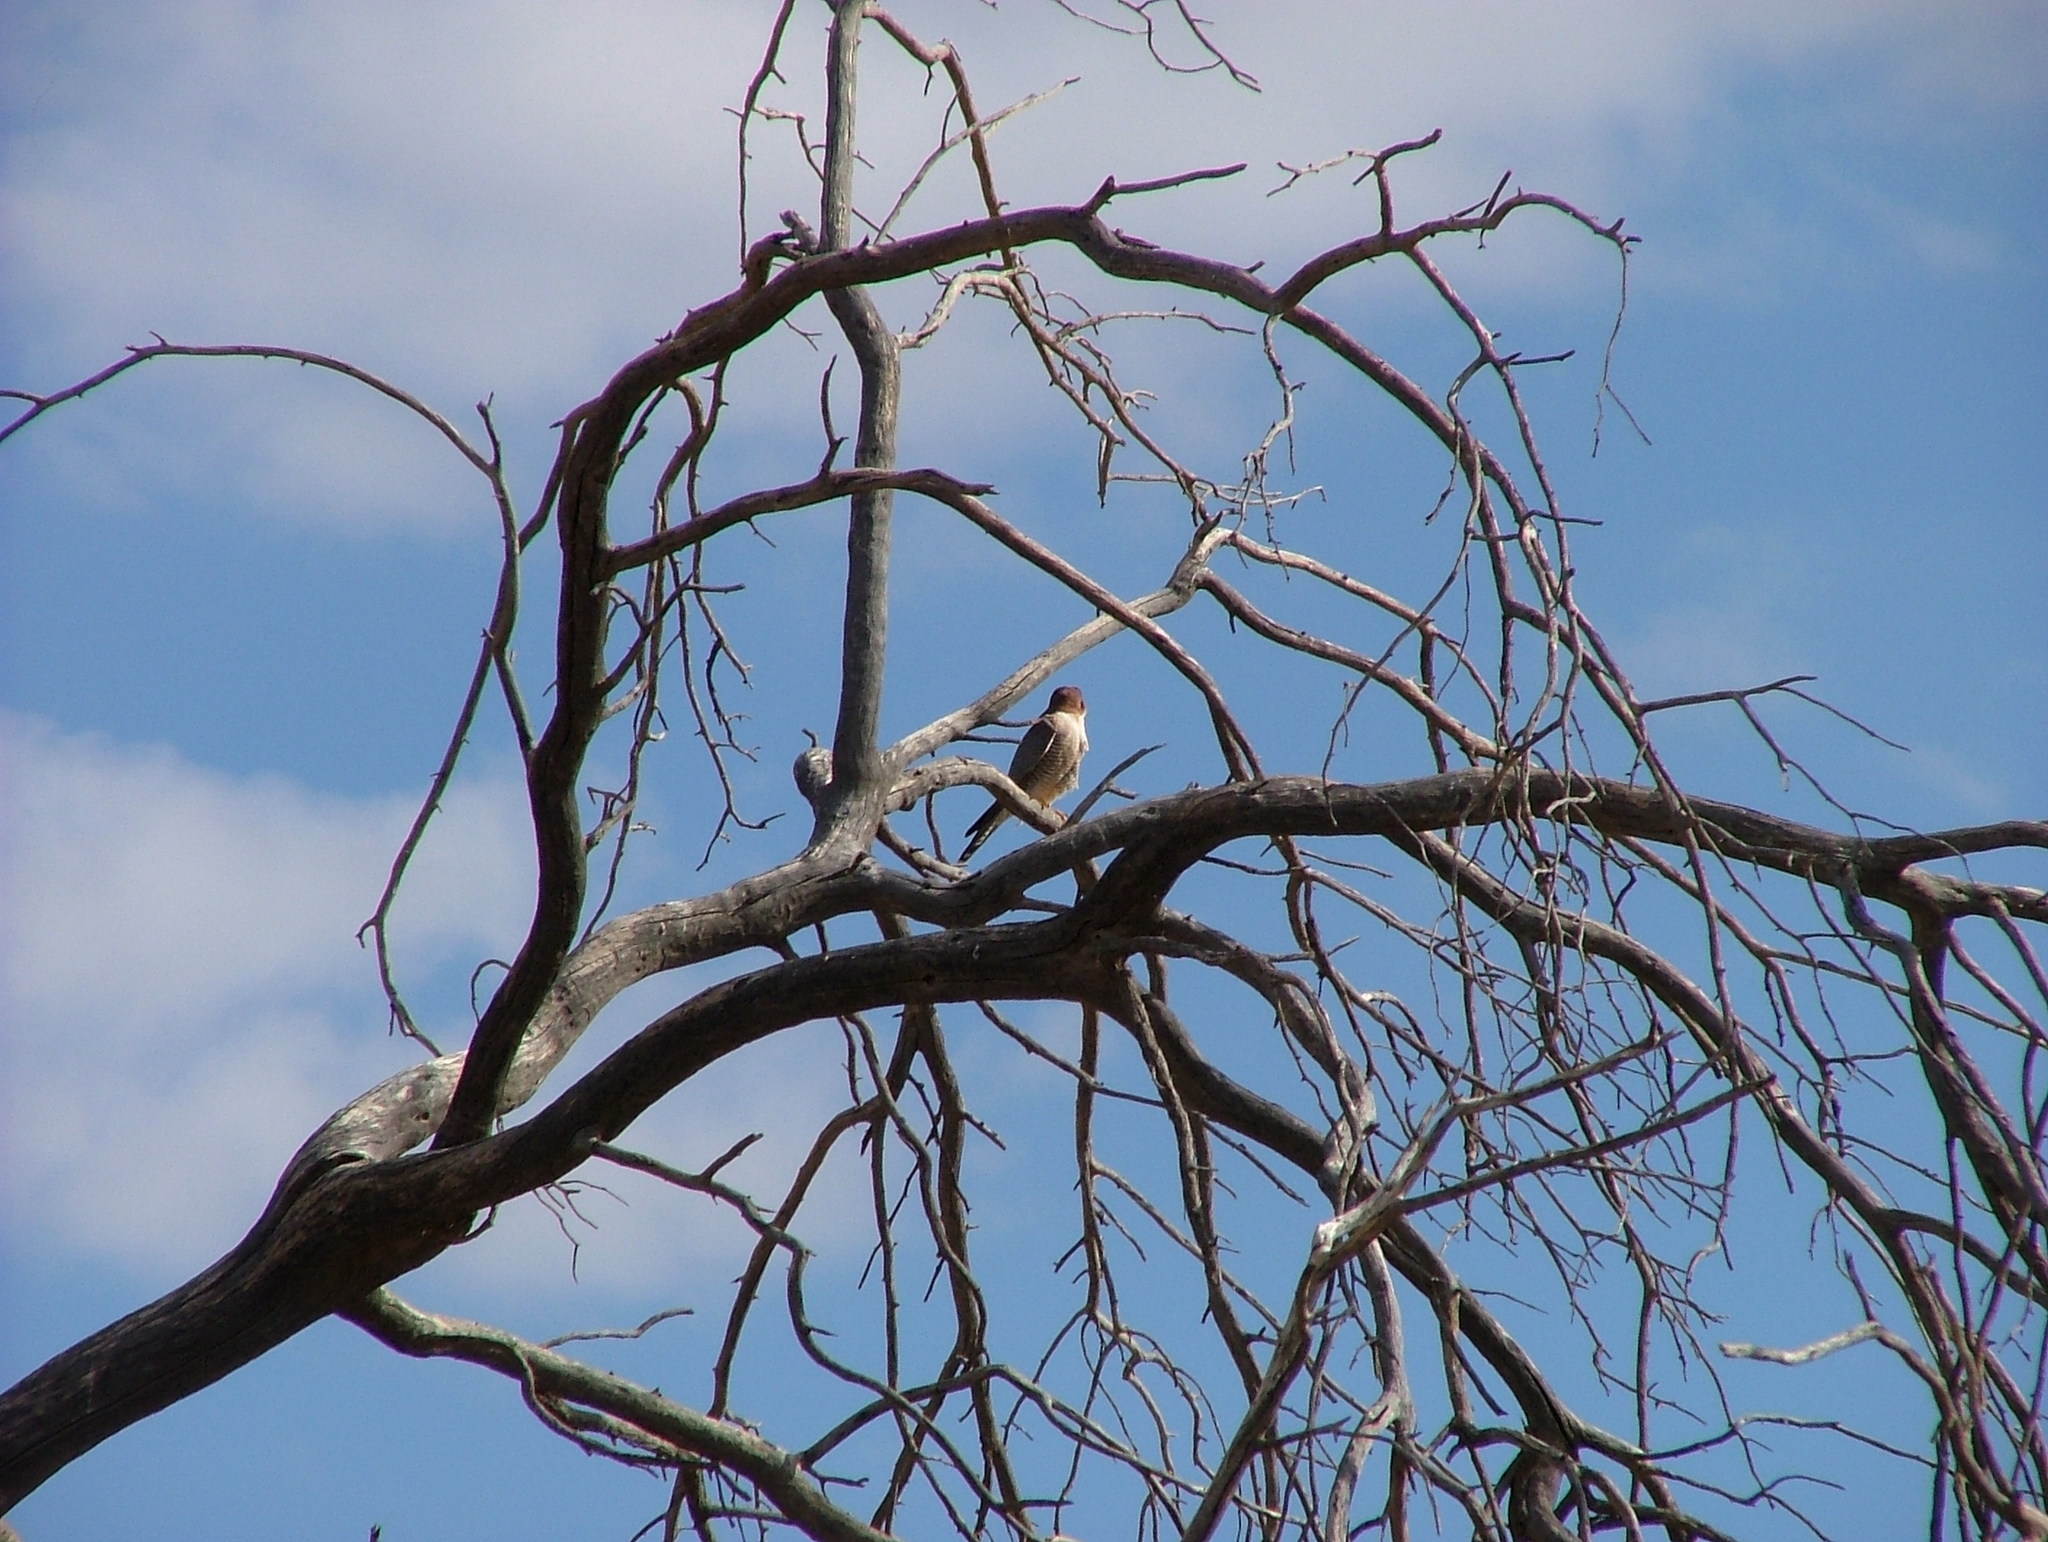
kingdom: Animalia
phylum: Chordata
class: Aves
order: Falconiformes
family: Falconidae
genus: Falco
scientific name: Falco chicquera
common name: Red-necked falcon
